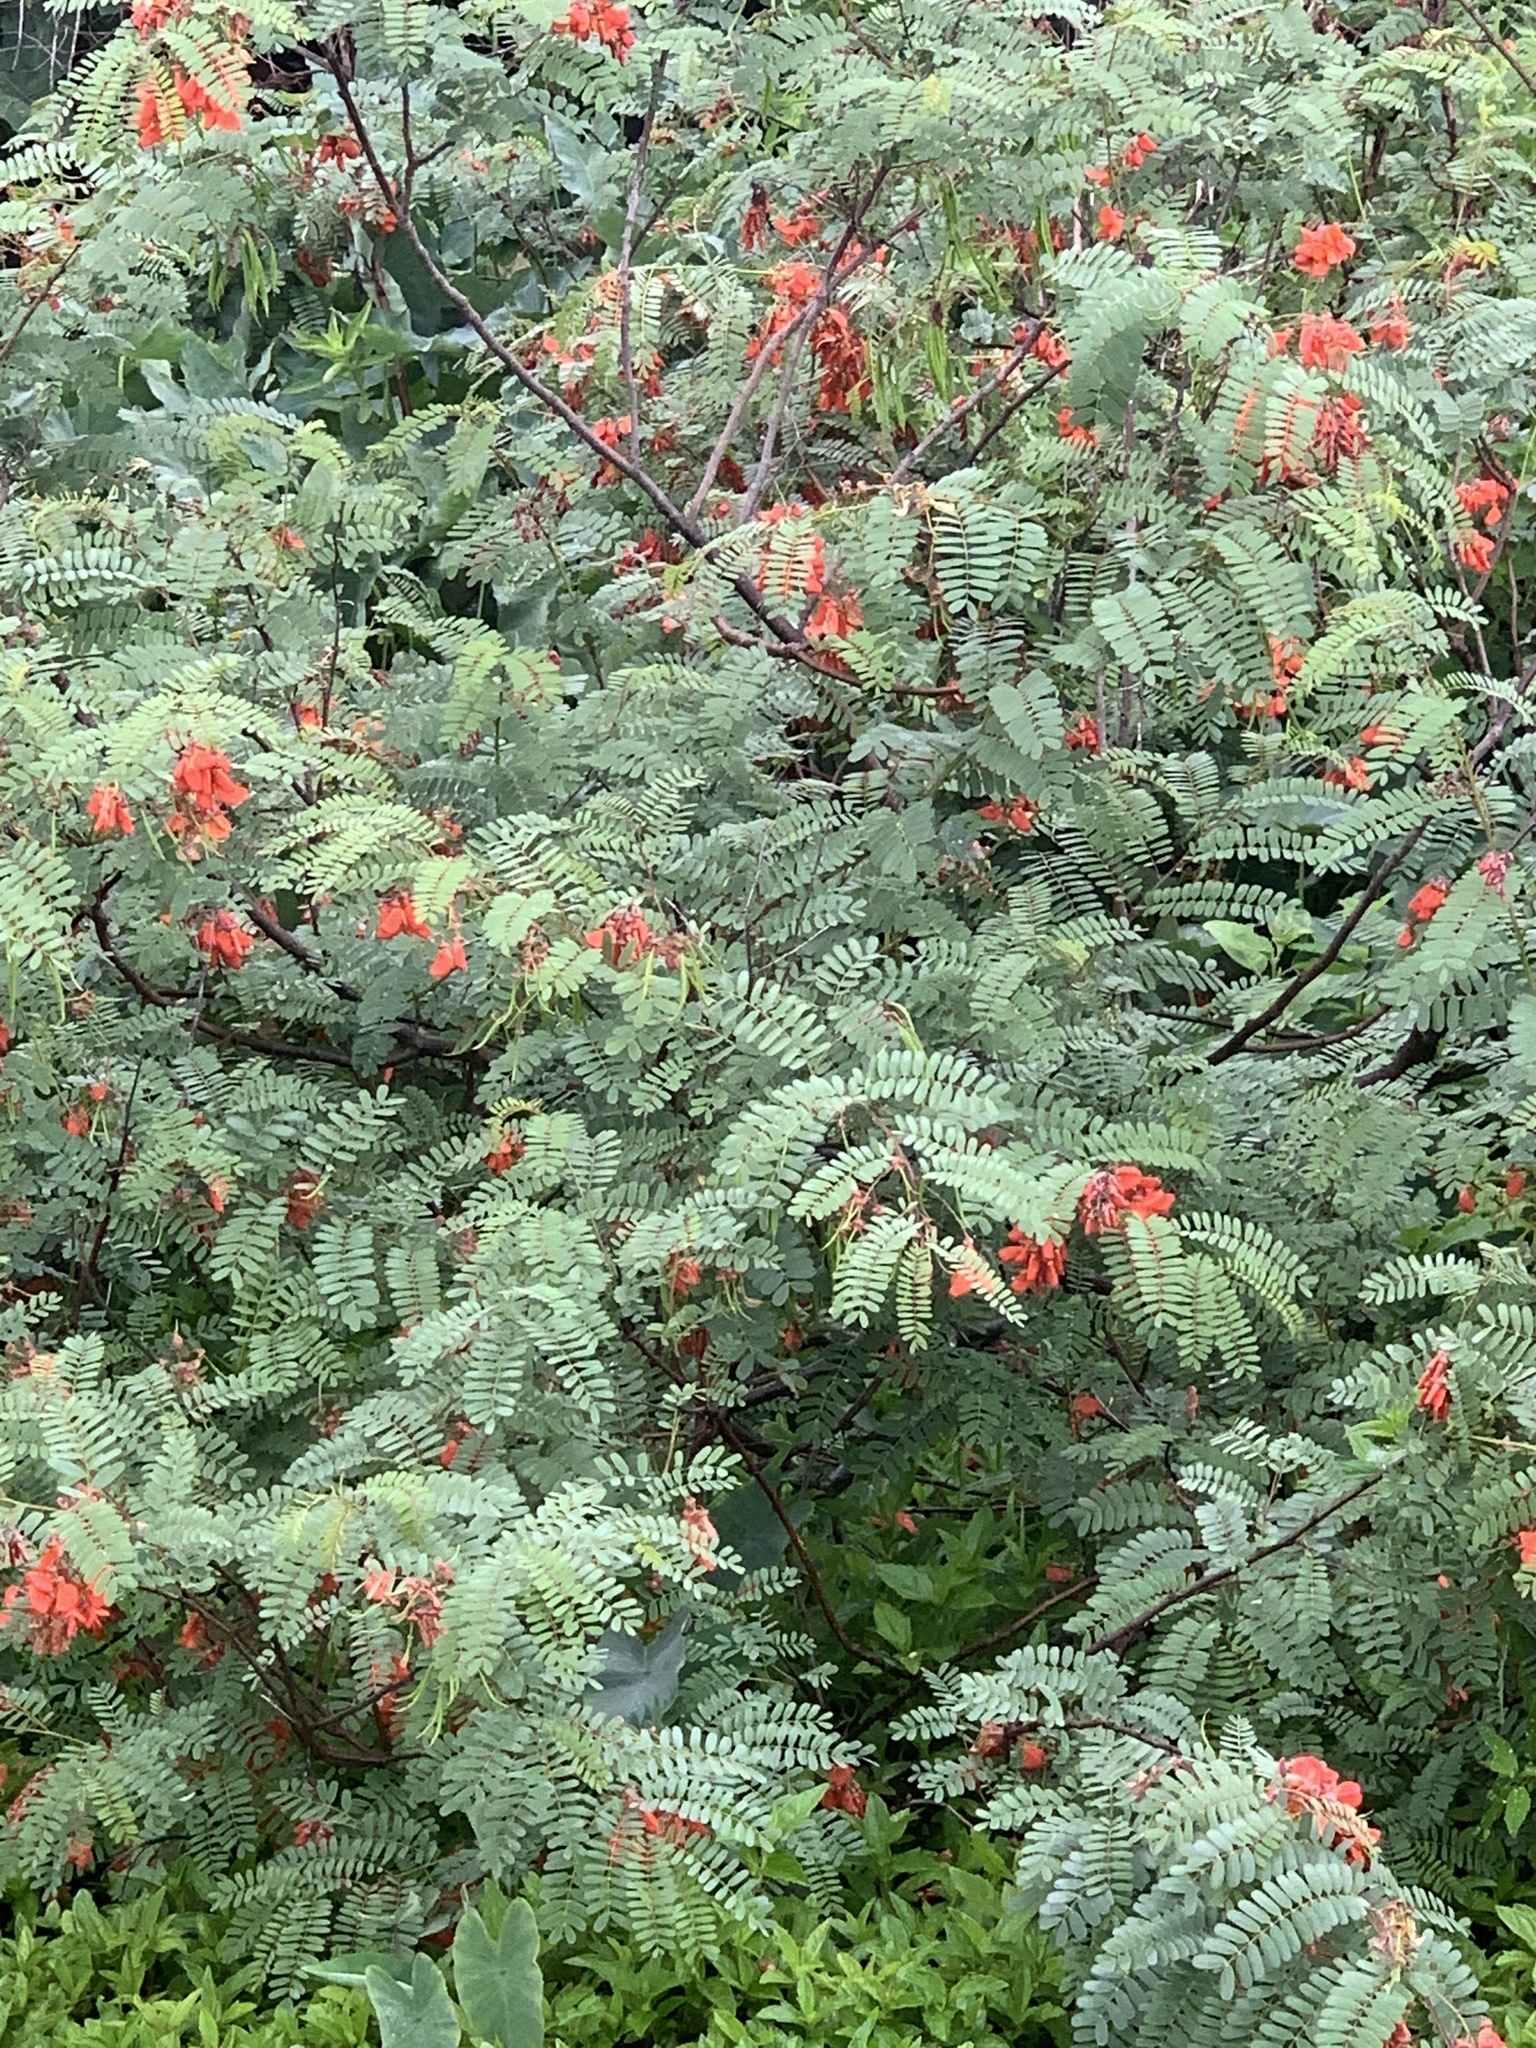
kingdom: Plantae
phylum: Tracheophyta
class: Magnoliopsida
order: Fabales
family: Fabaceae
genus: Sesbania
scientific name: Sesbania punicea
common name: Rattlebox
